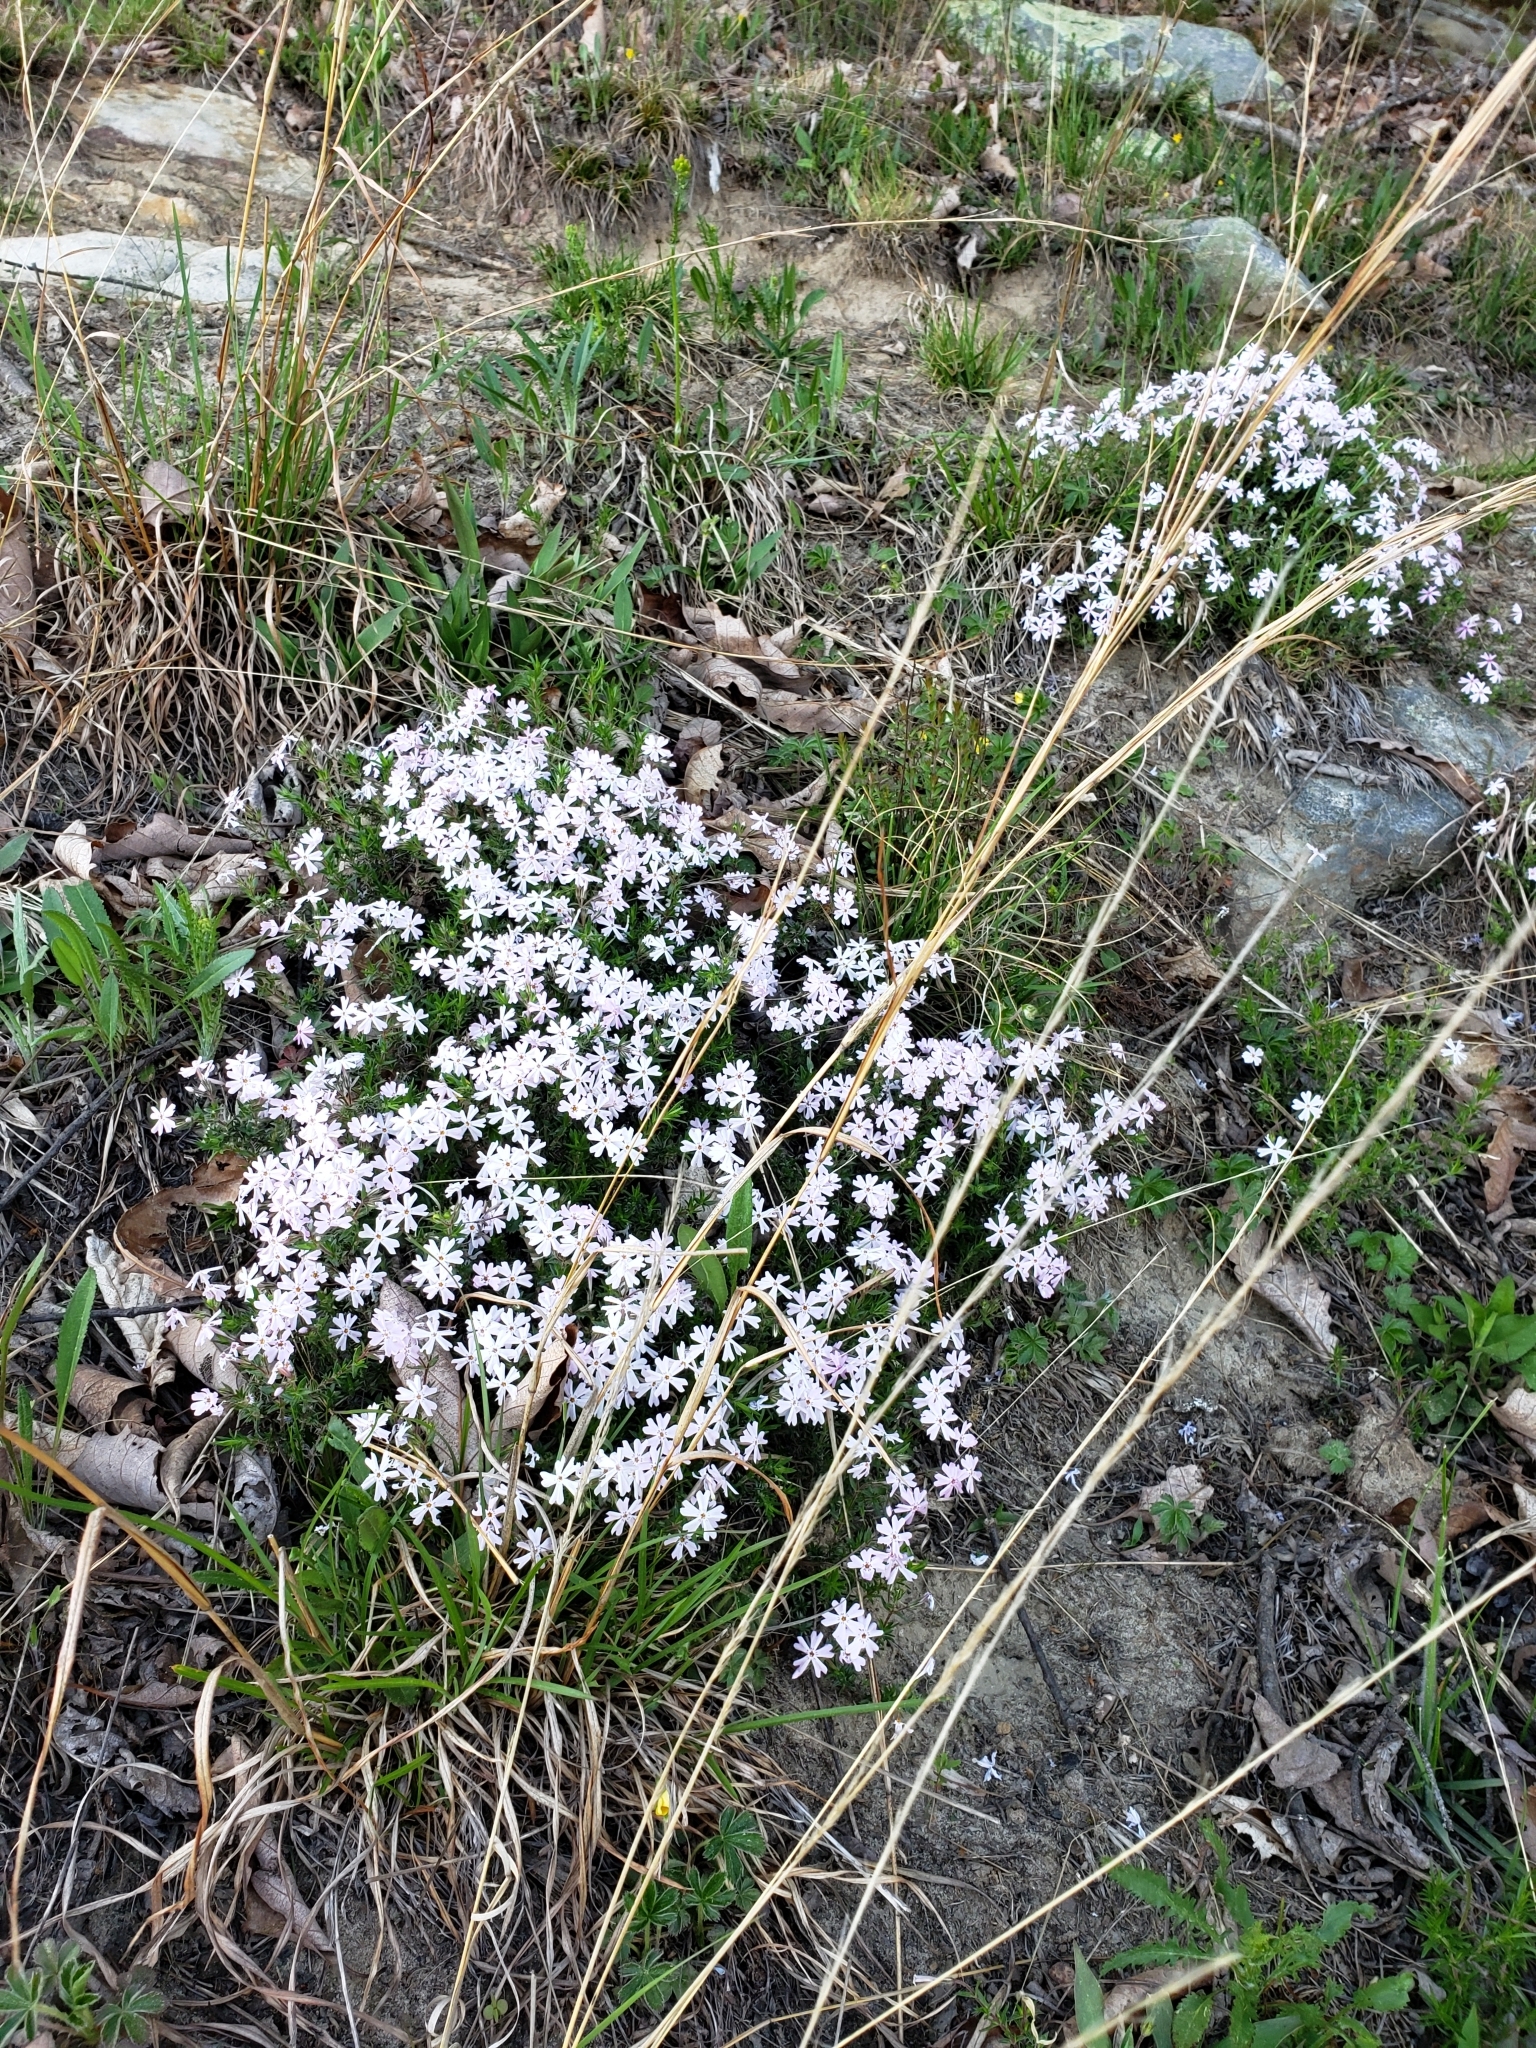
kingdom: Plantae
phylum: Tracheophyta
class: Magnoliopsida
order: Ericales
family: Polemoniaceae
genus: Phlox
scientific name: Phlox subulata
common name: Moss phlox
